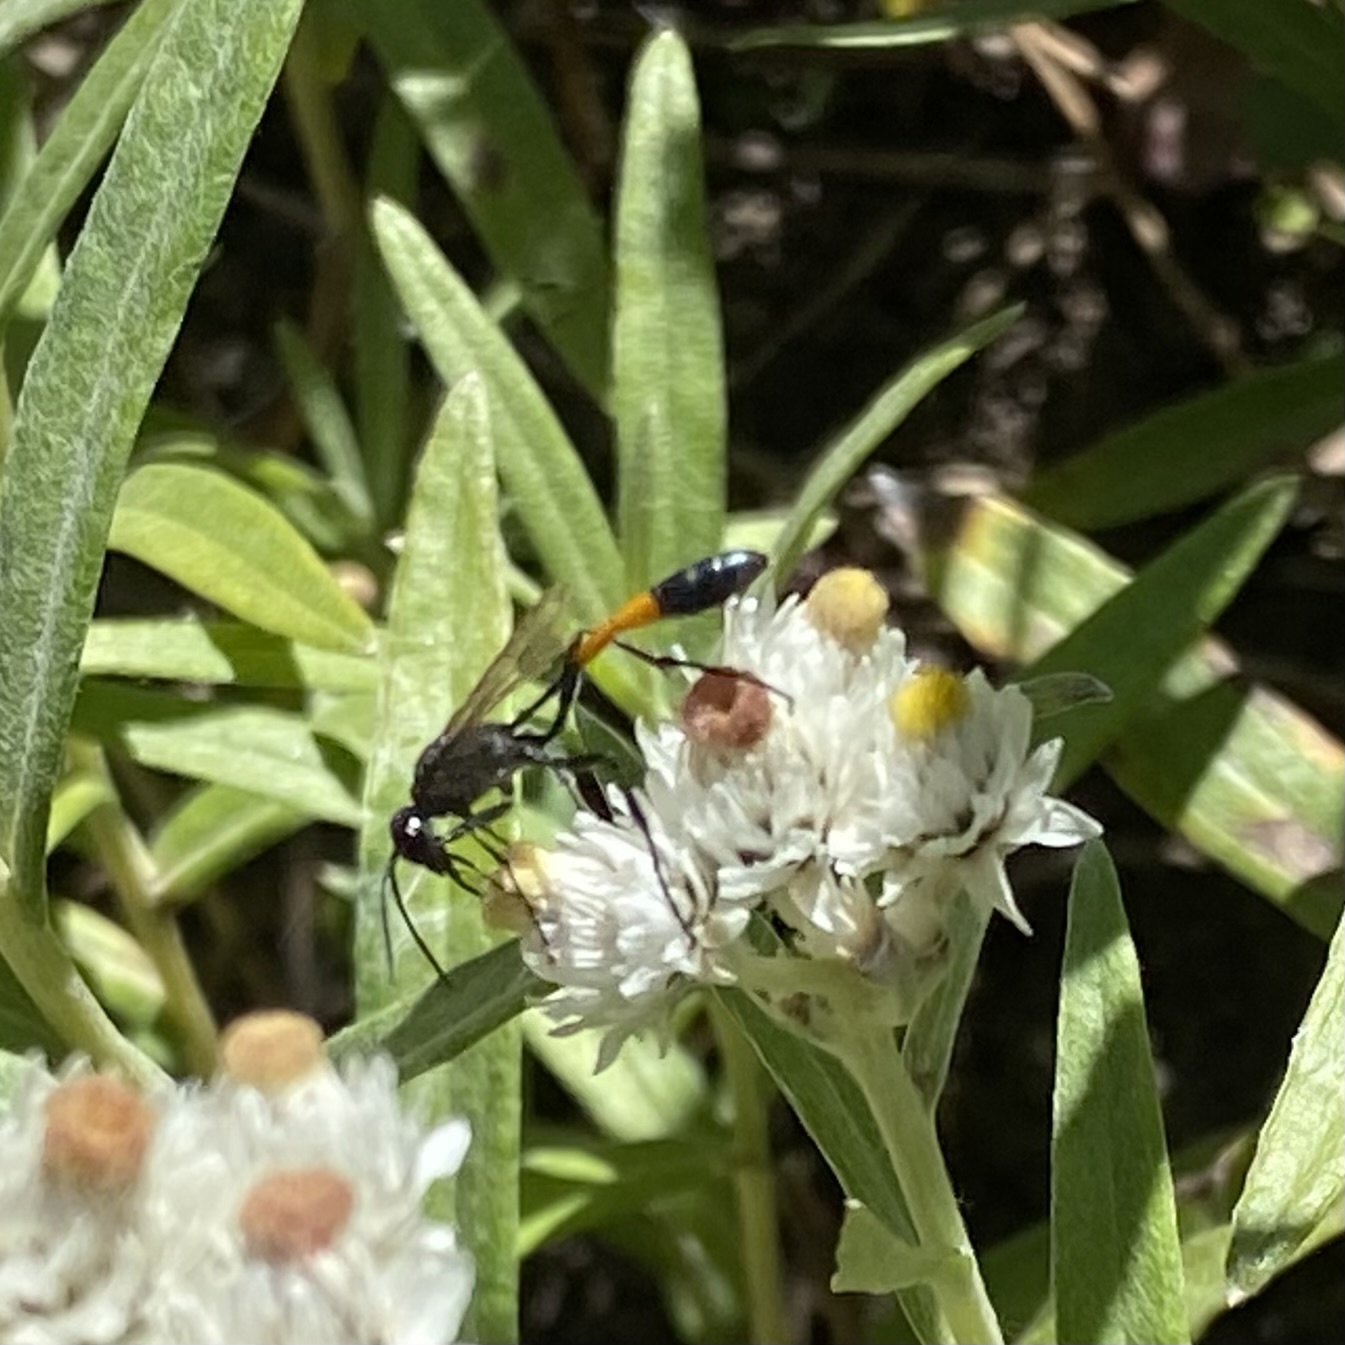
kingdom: Animalia
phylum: Arthropoda
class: Insecta
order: Hymenoptera
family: Sphecidae
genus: Ammophila
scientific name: Ammophila
